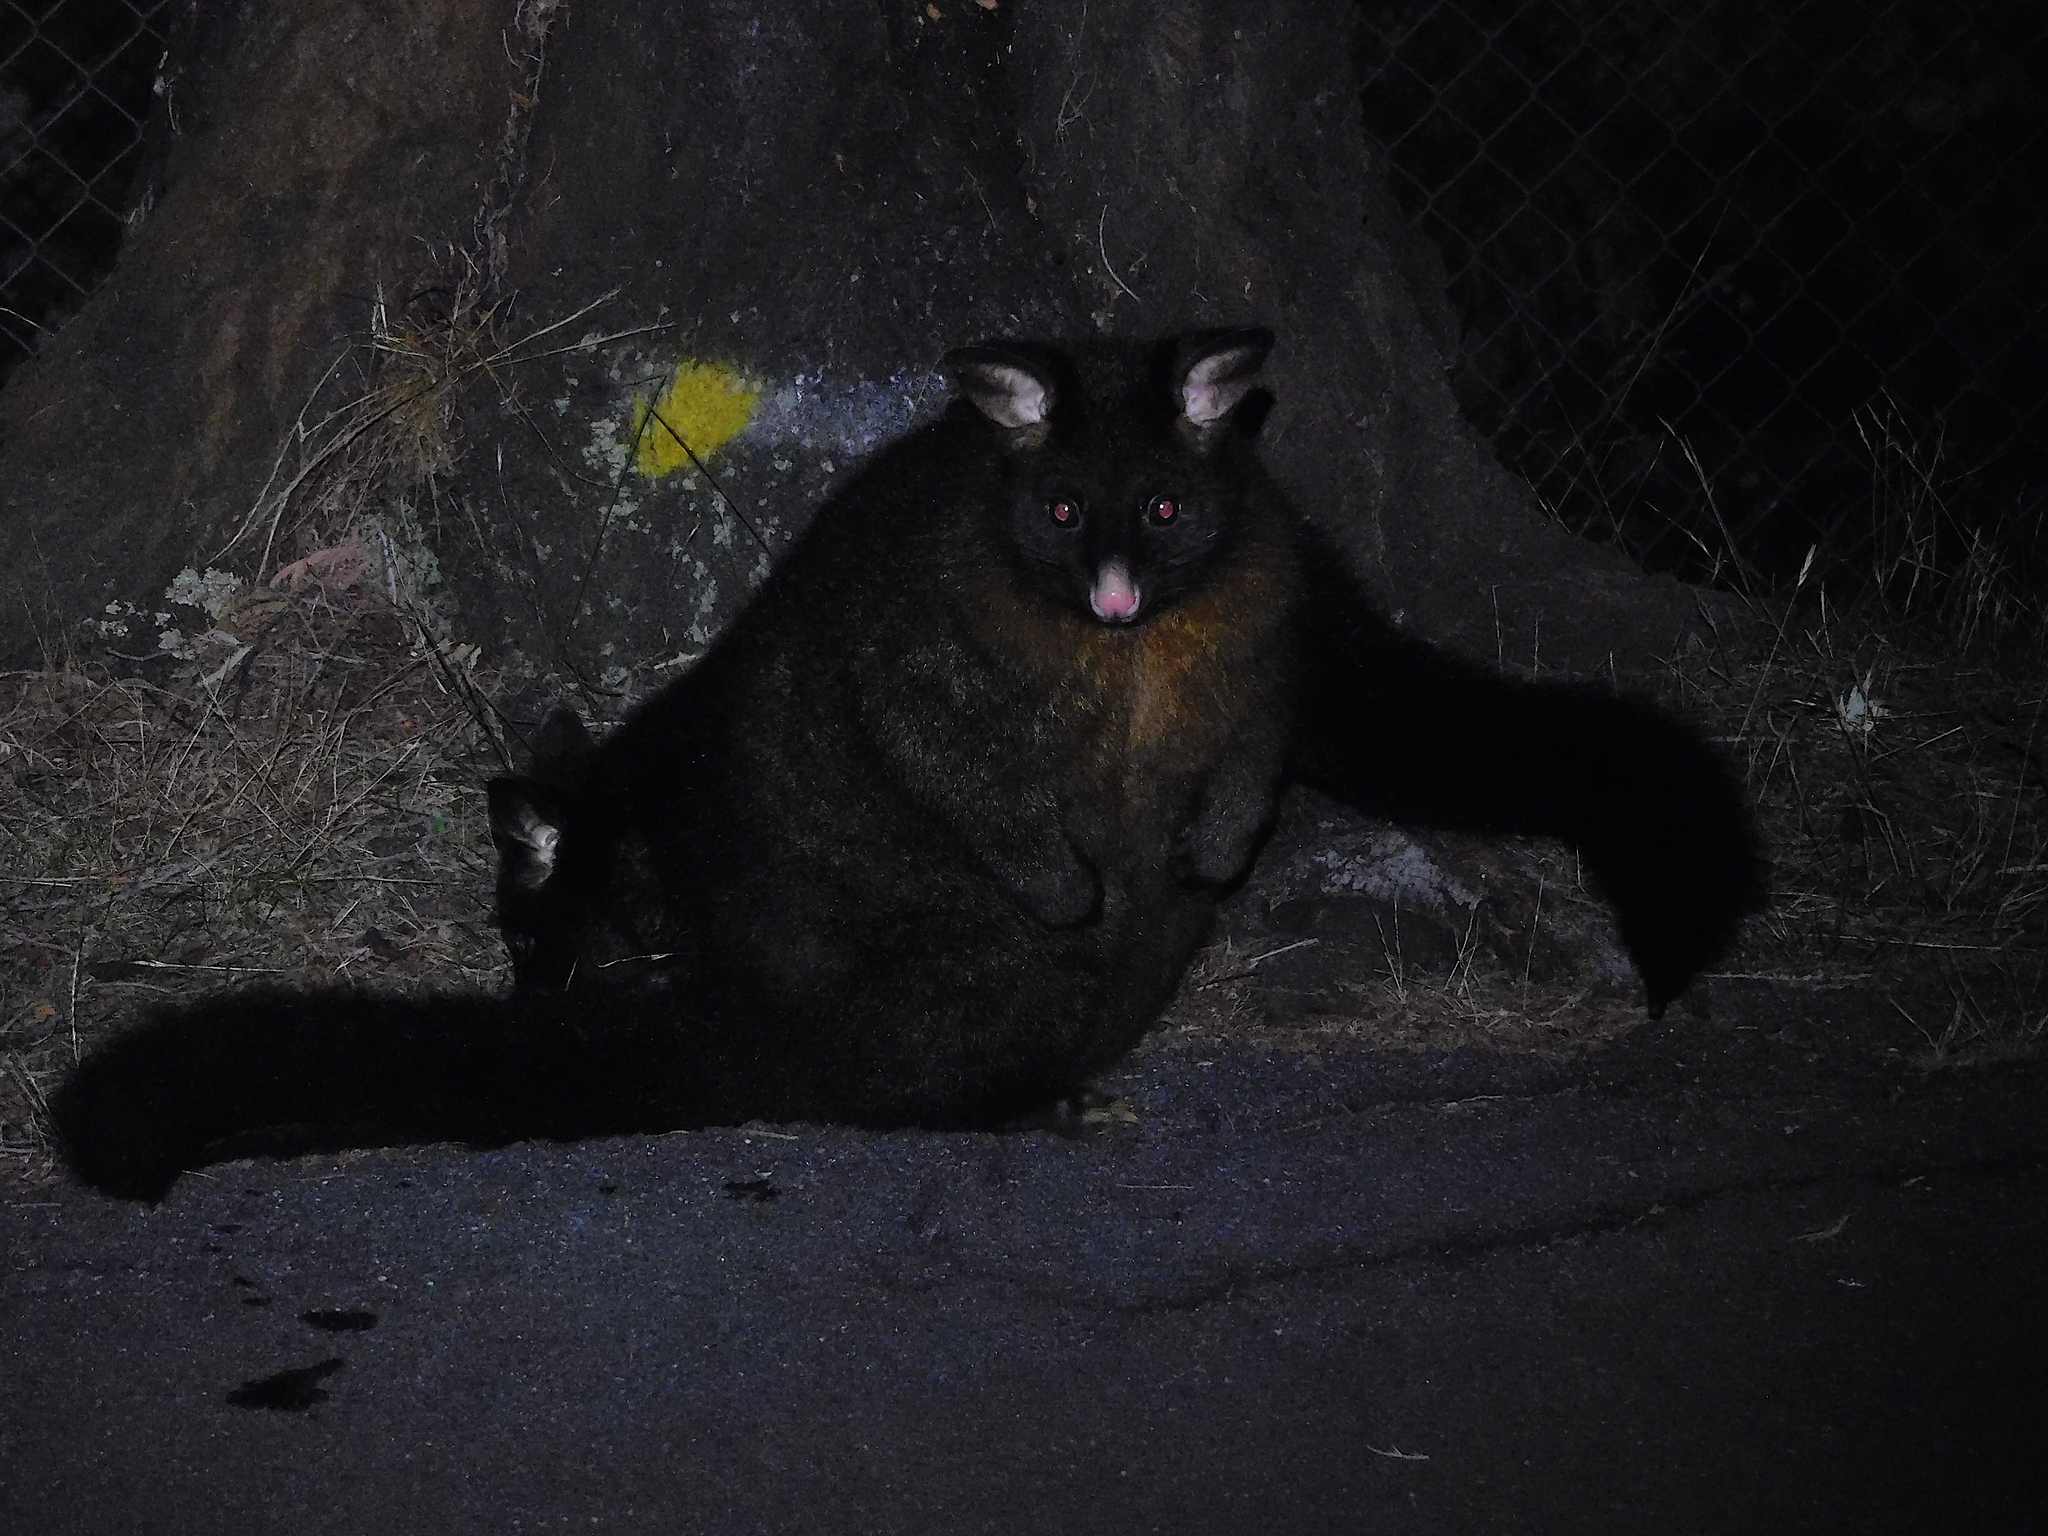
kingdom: Animalia
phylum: Chordata
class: Mammalia
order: Diprotodontia
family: Phalangeridae
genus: Trichosurus
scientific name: Trichosurus vulpecula
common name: Common brushtail
